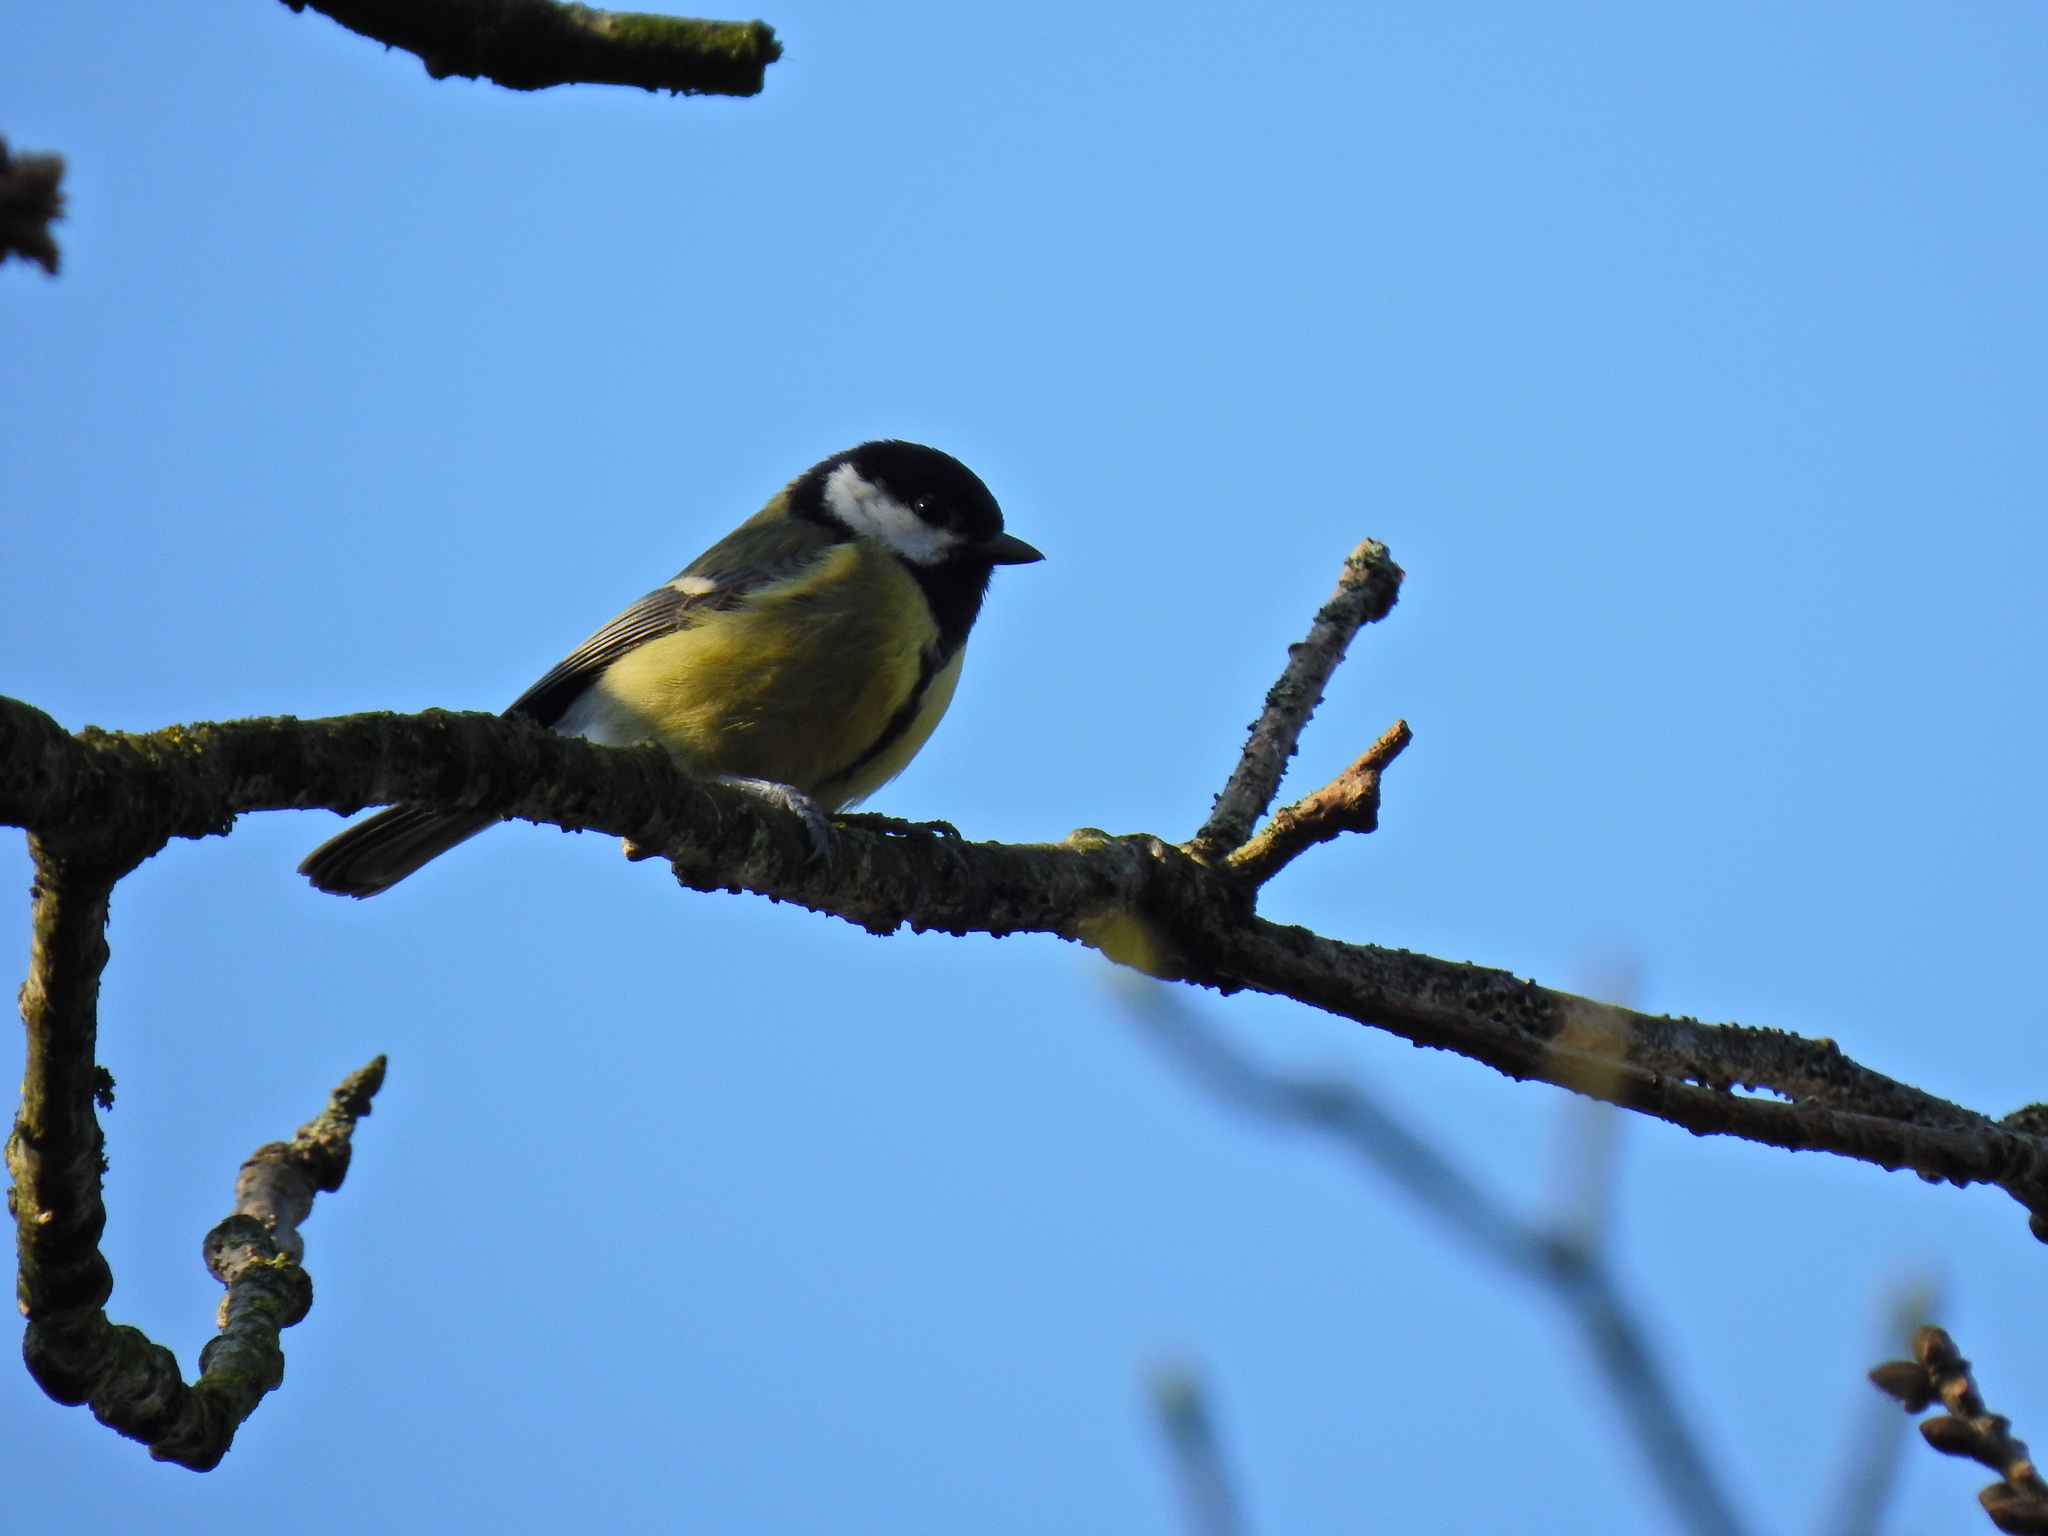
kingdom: Animalia
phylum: Chordata
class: Aves
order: Passeriformes
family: Paridae
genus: Parus
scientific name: Parus major
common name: Great tit
